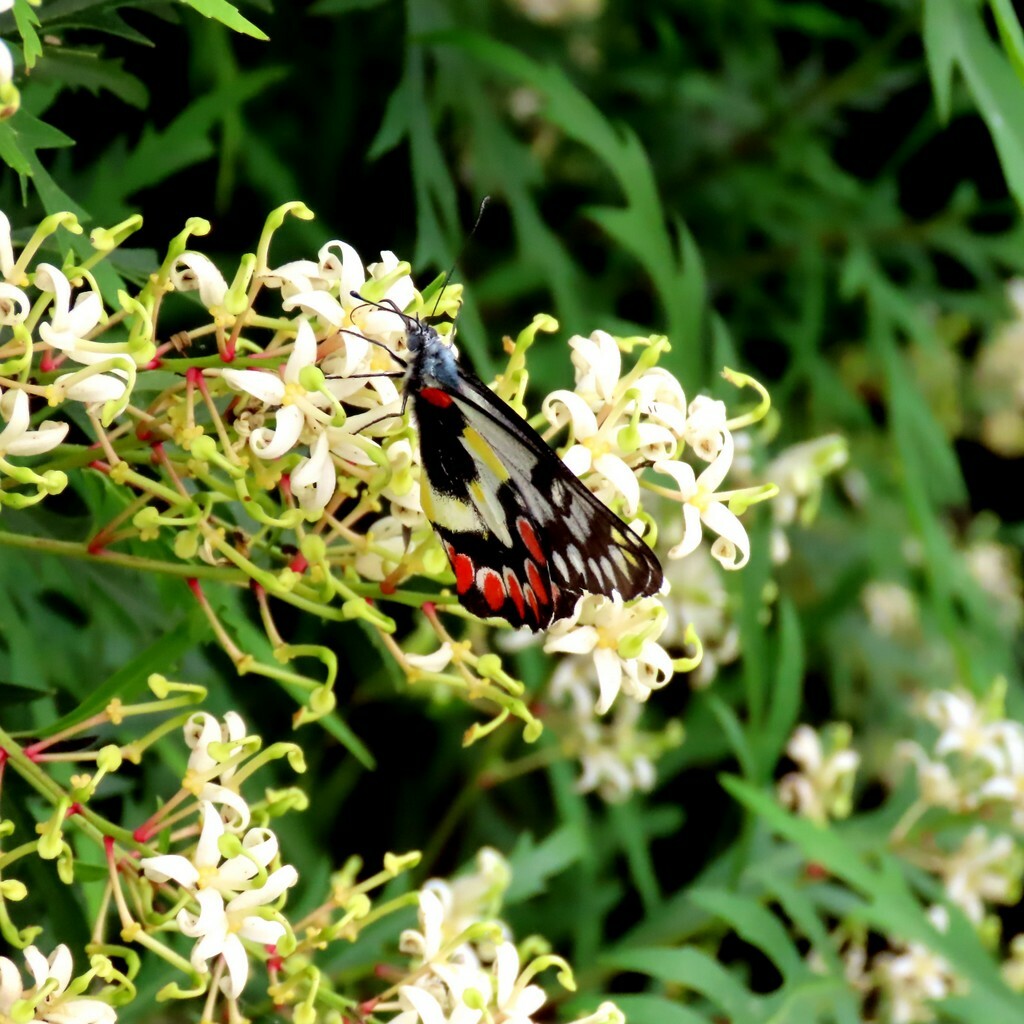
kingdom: Animalia
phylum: Arthropoda
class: Insecta
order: Lepidoptera
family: Pieridae
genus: Delias
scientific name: Delias aganippe
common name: Red-spotted jezebel
